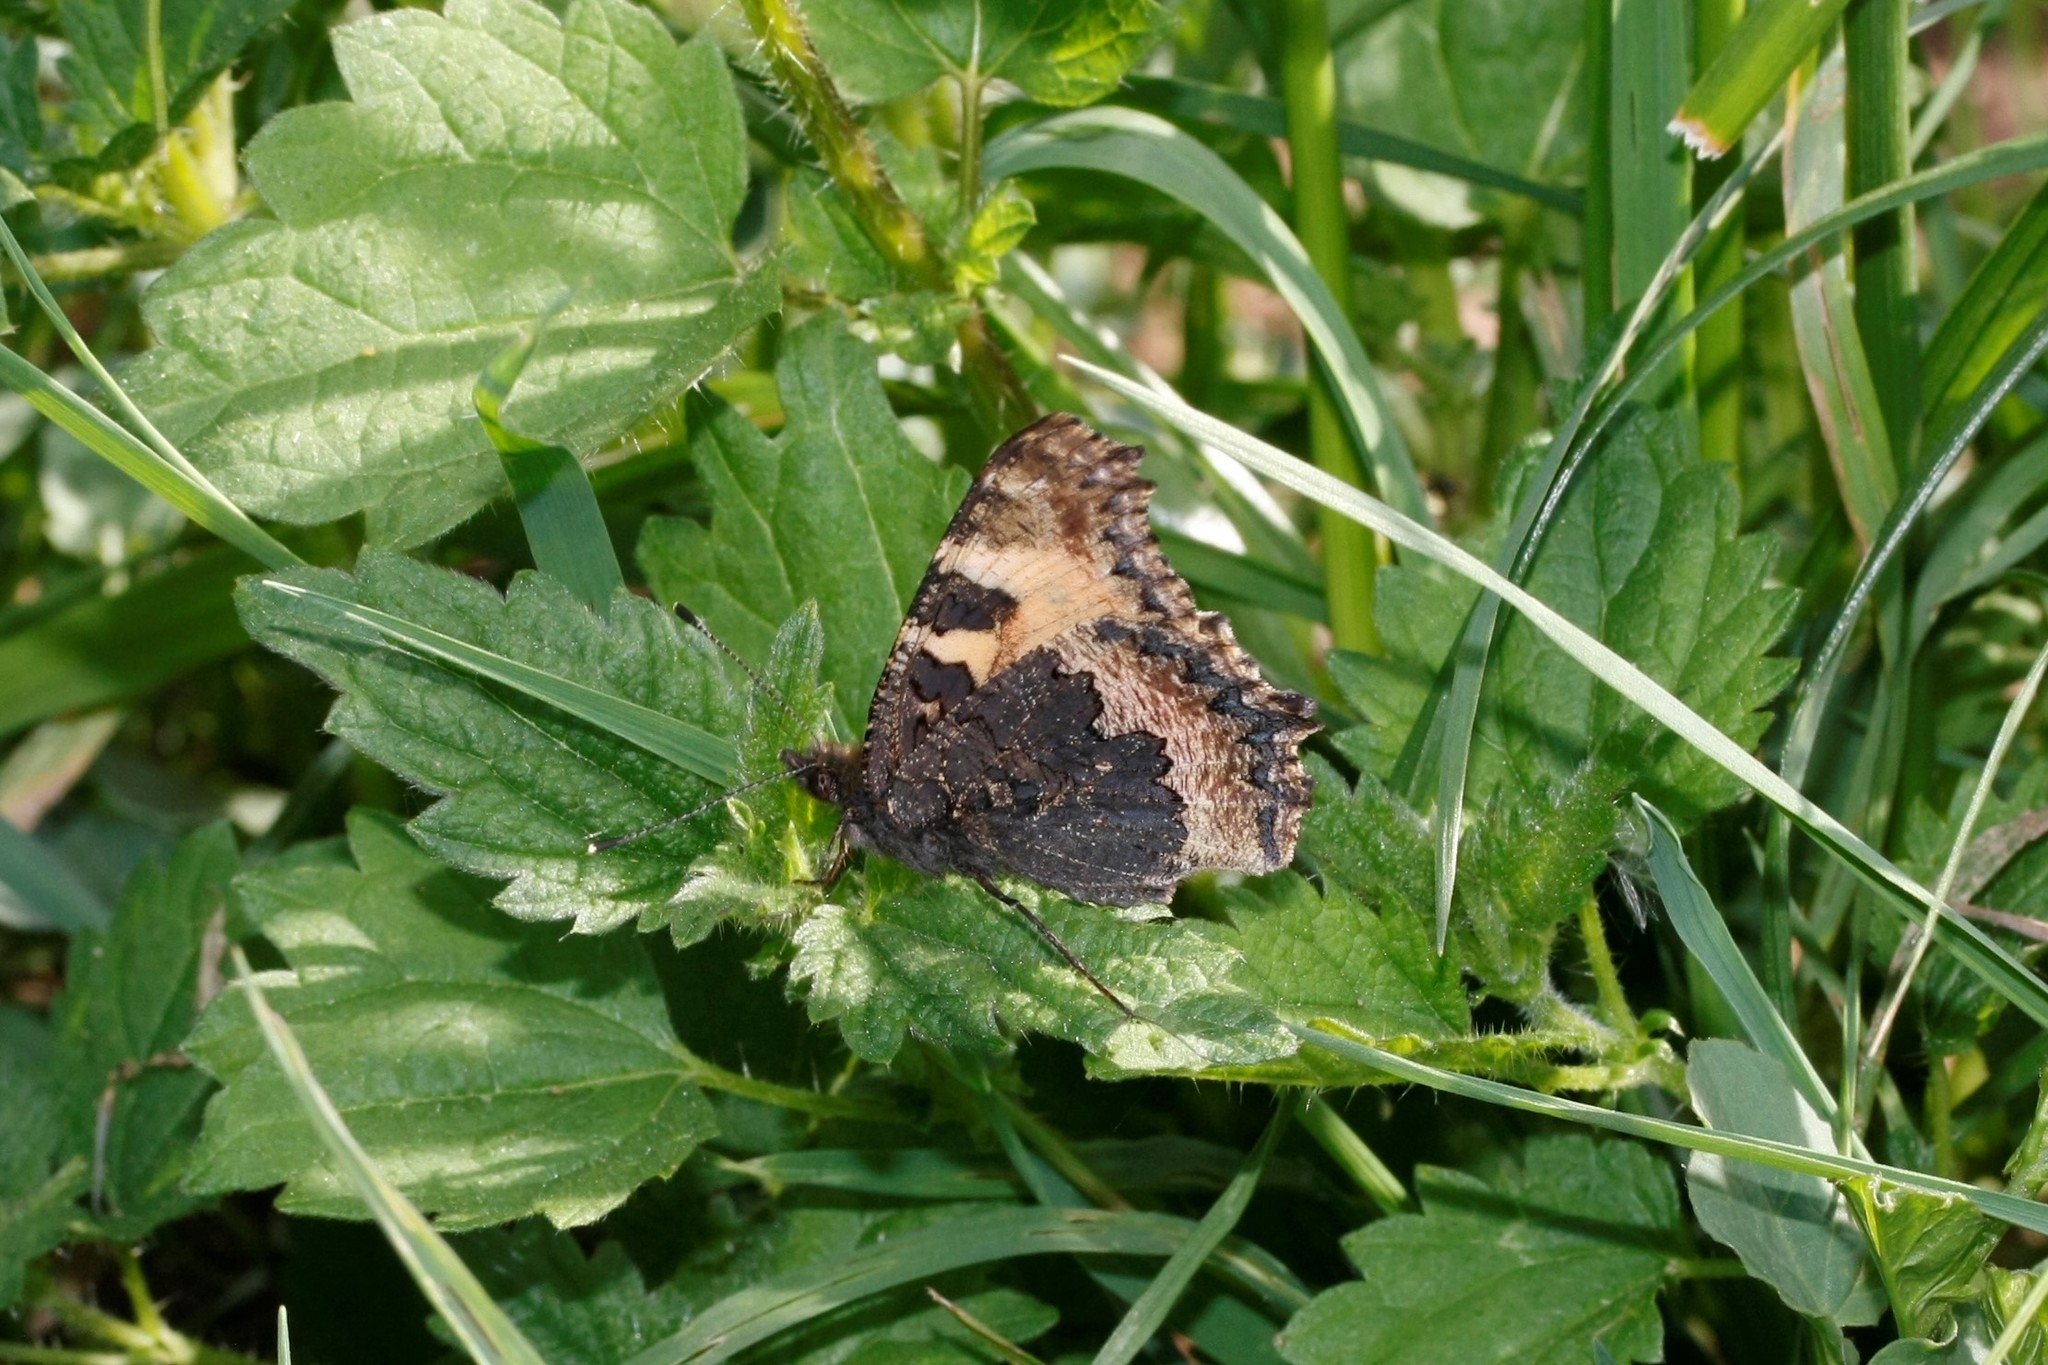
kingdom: Animalia
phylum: Arthropoda
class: Insecta
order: Lepidoptera
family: Nymphalidae
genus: Aglais
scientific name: Aglais urticae
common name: Small tortoiseshell
